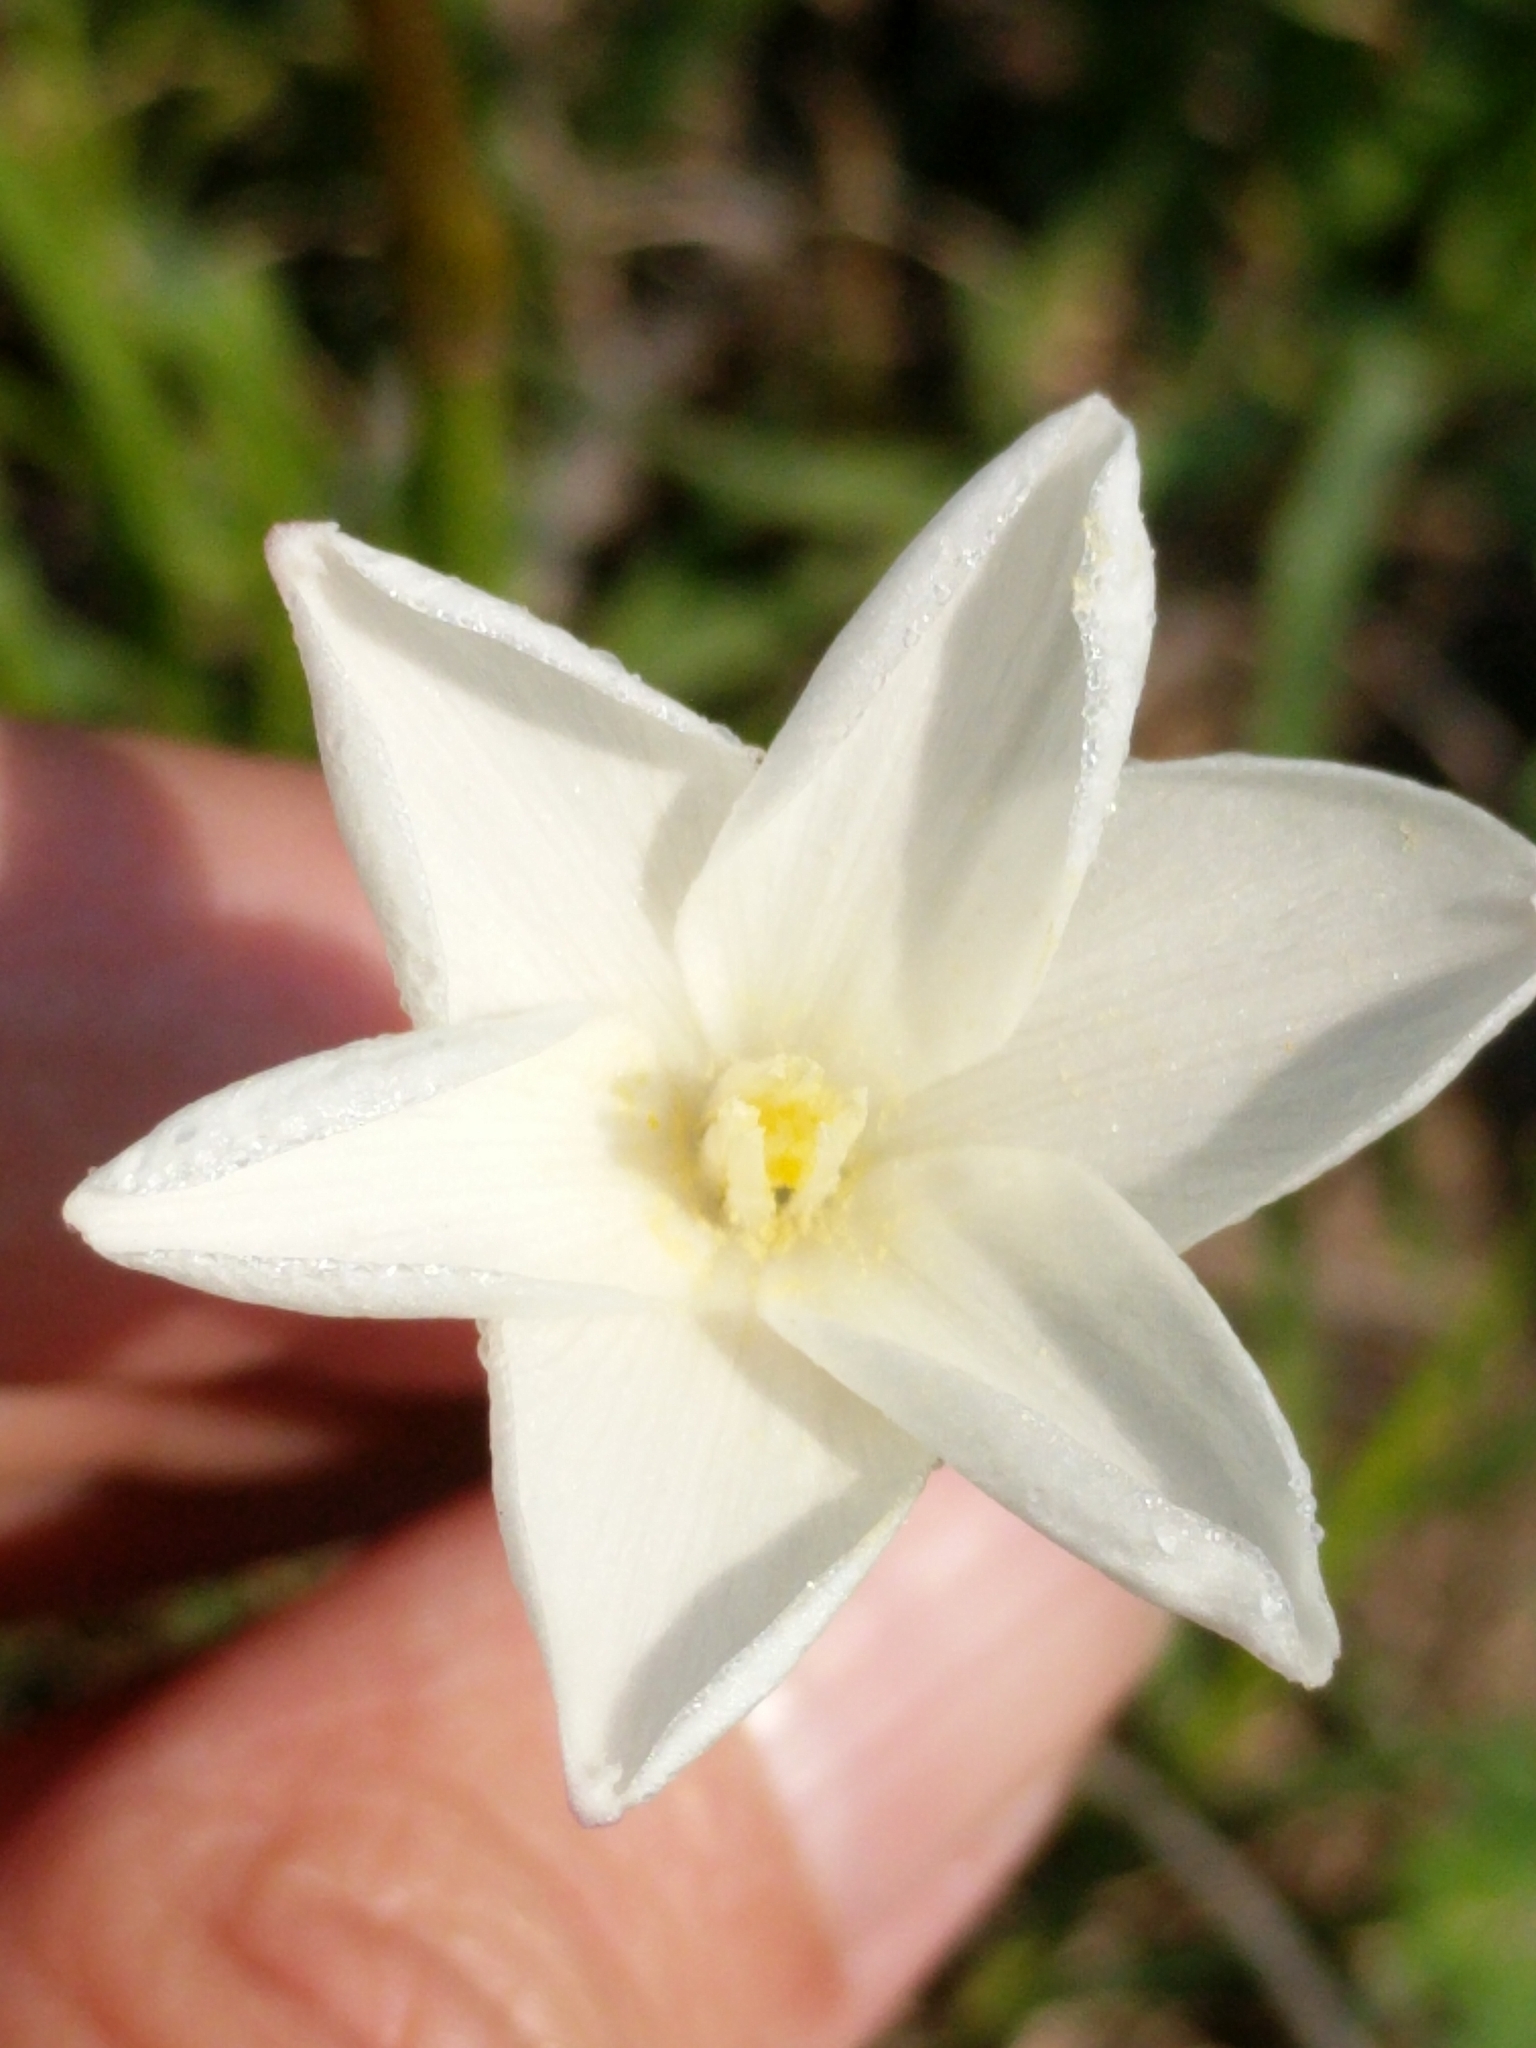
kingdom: Plantae
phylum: Tracheophyta
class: Liliopsida
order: Asparagales
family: Amaryllidaceae
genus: Zephyranthes
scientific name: Zephyranthes chlorosolen
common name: Evening rain-lily
